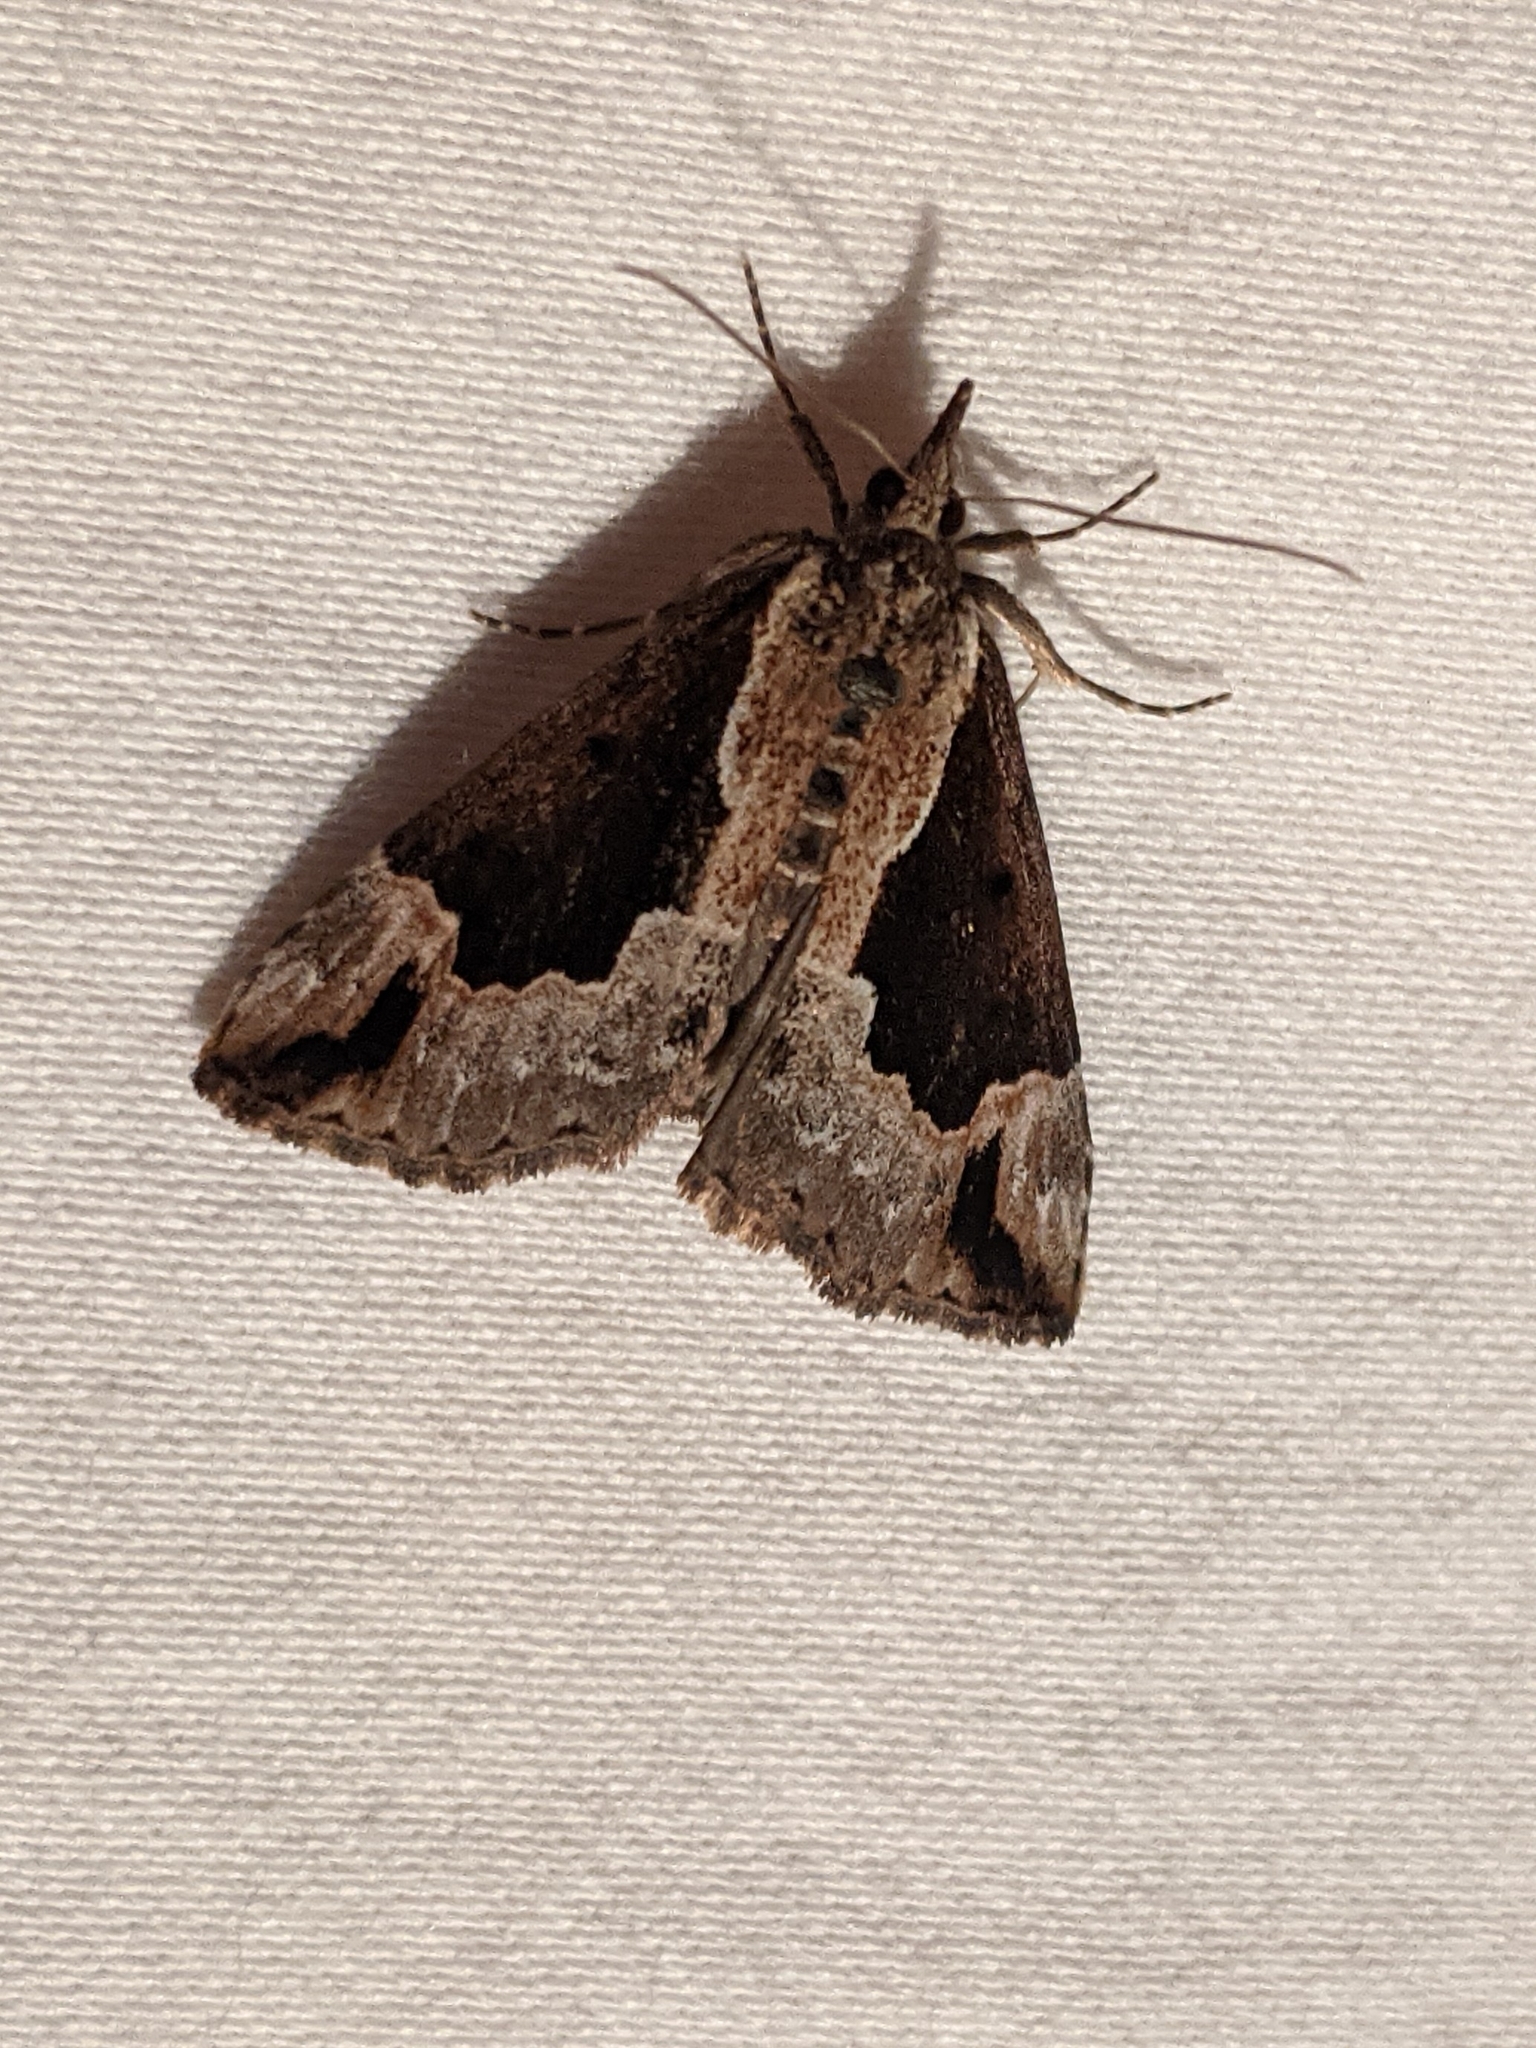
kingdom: Animalia
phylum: Arthropoda
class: Insecta
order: Lepidoptera
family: Erebidae
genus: Hypena
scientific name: Hypena baltimoralis
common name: Baltimore snout
